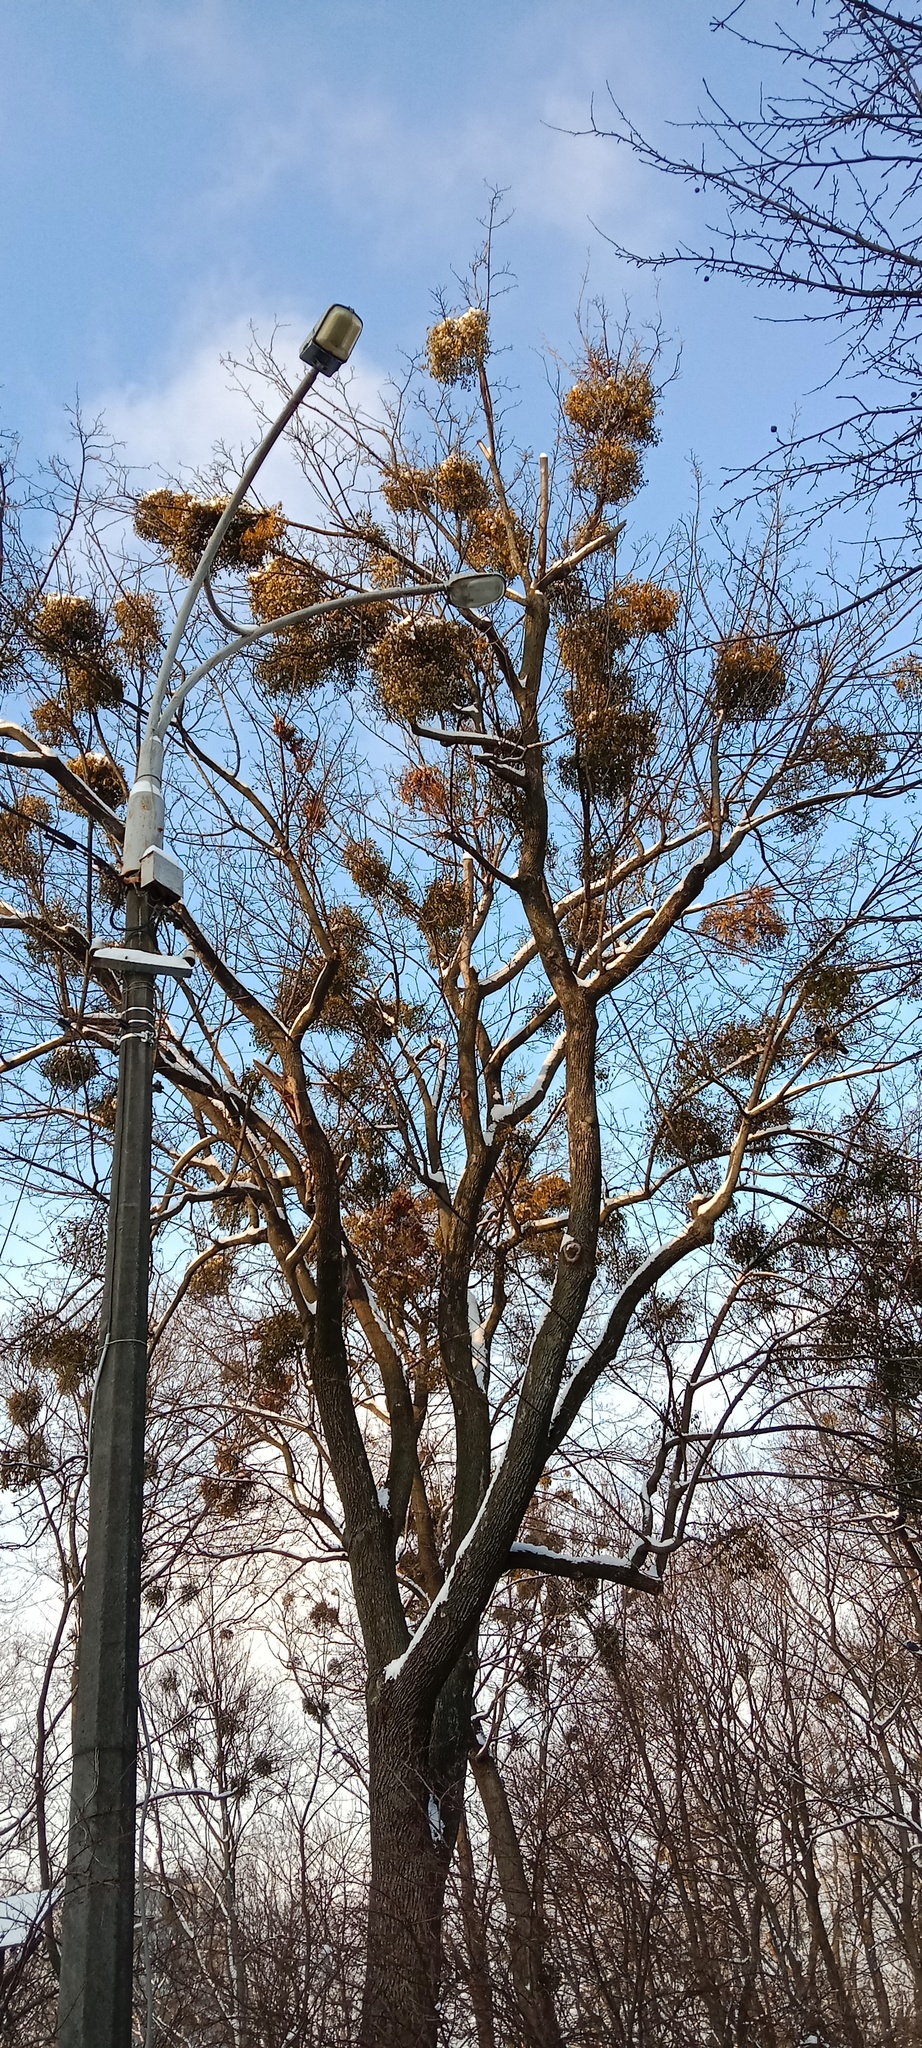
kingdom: Plantae
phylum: Tracheophyta
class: Magnoliopsida
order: Santalales
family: Viscaceae
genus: Viscum
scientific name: Viscum album
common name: Mistletoe
